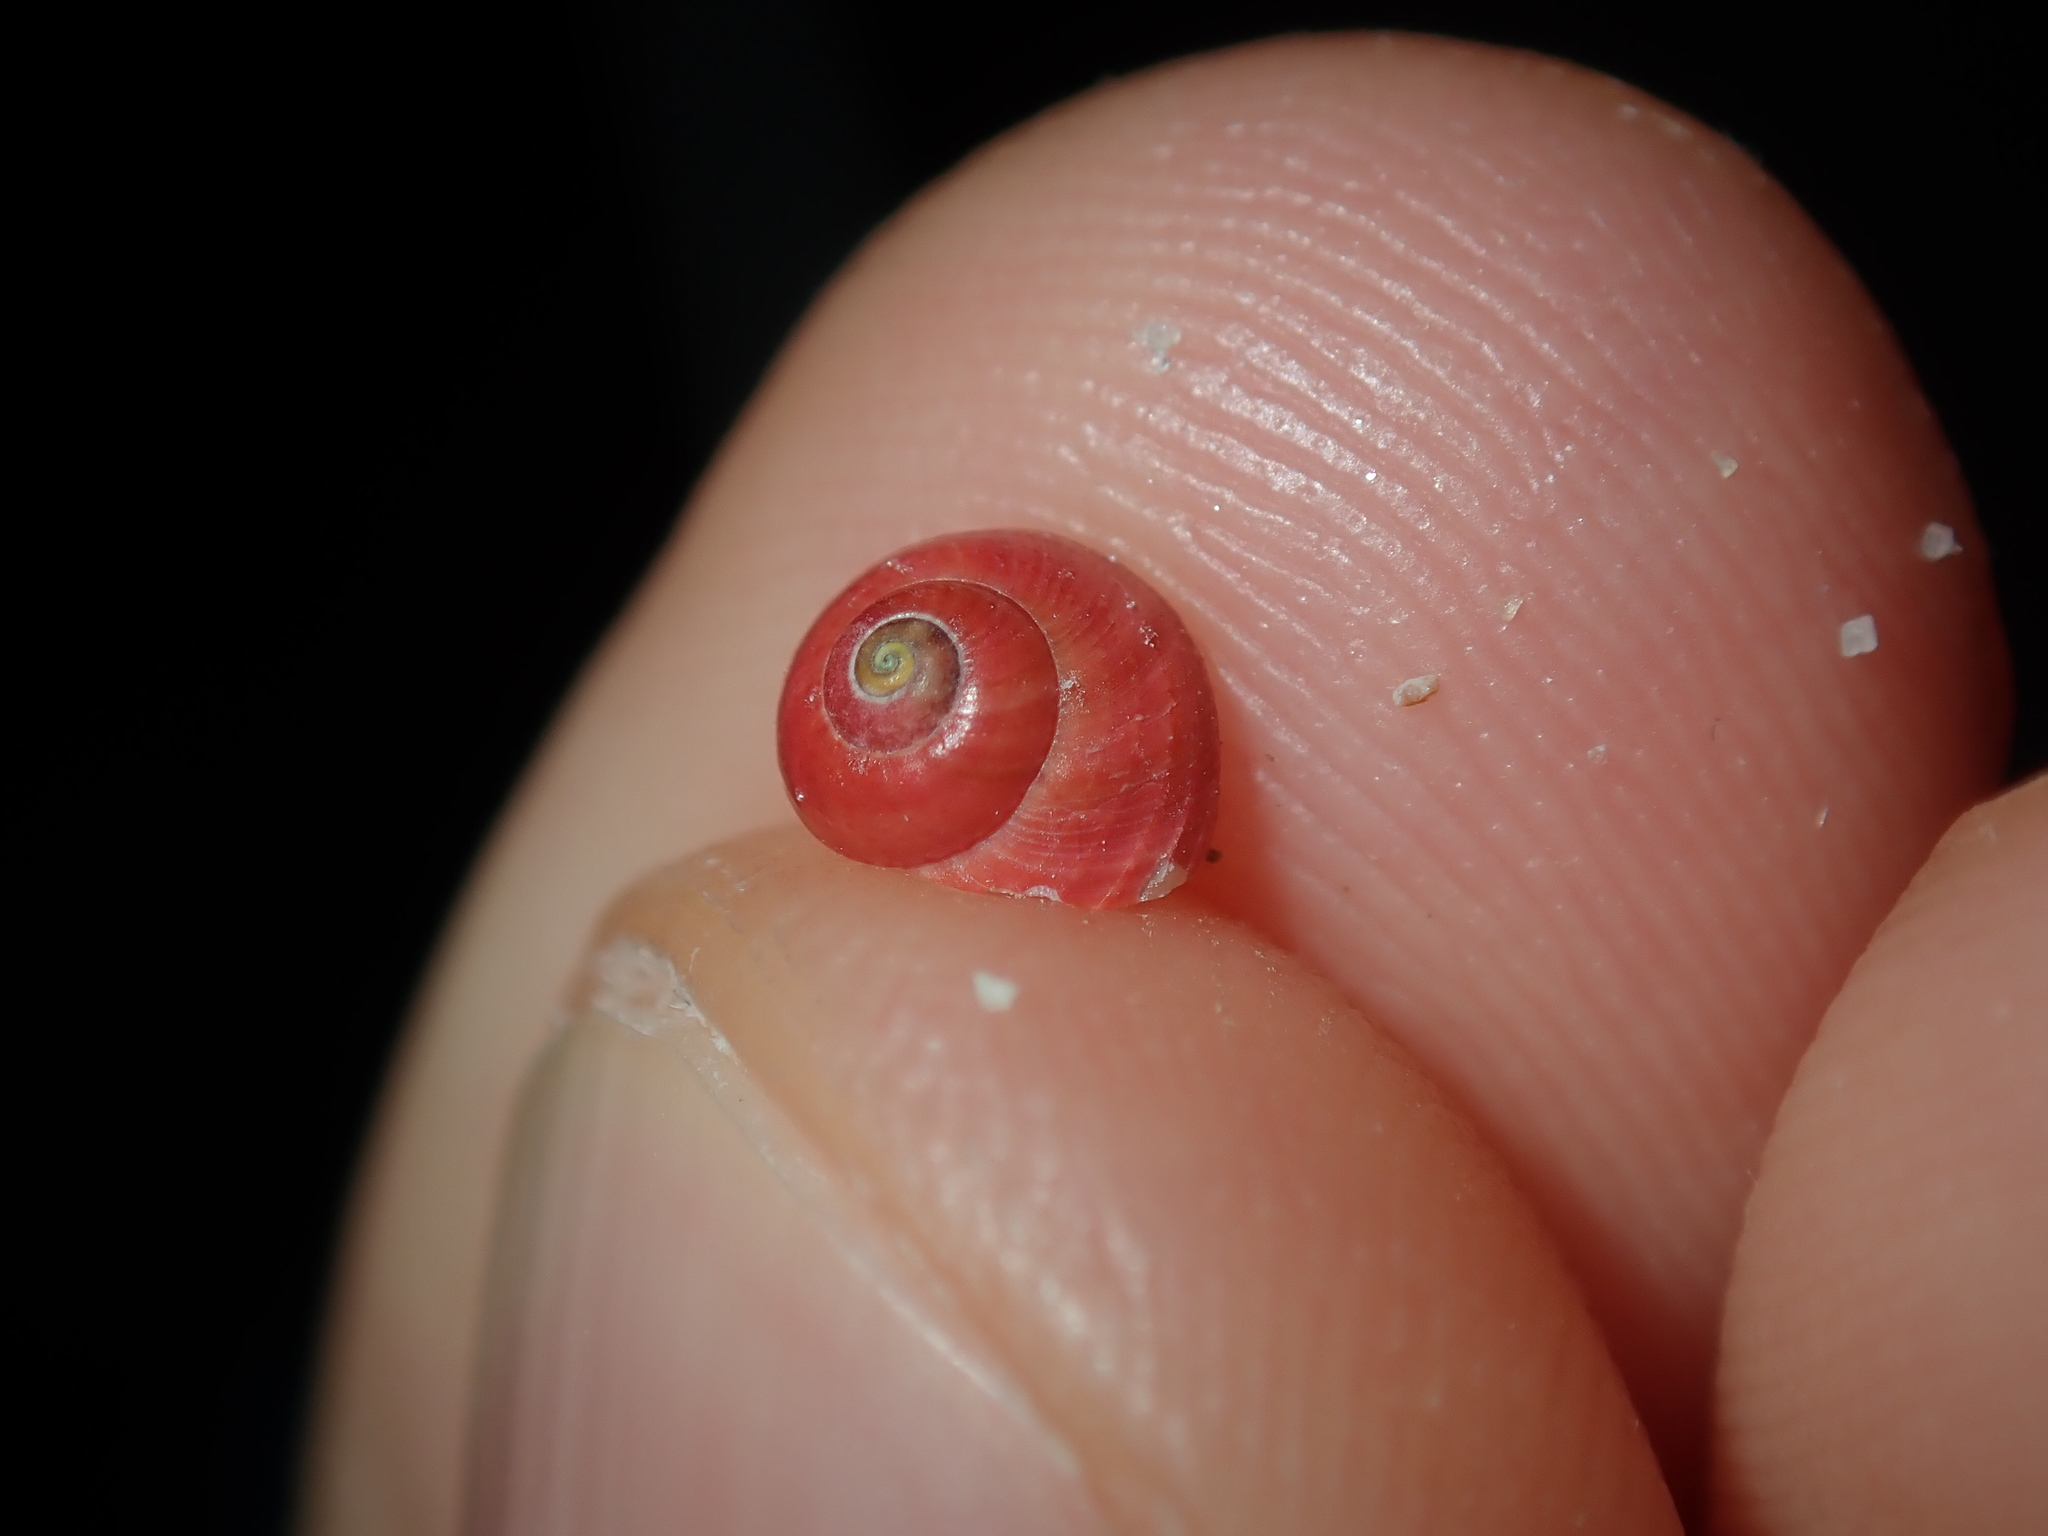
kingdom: Animalia
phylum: Mollusca
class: Gastropoda
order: Trochida
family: Trochidae
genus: Cantharidella
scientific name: Cantharidella picturata
